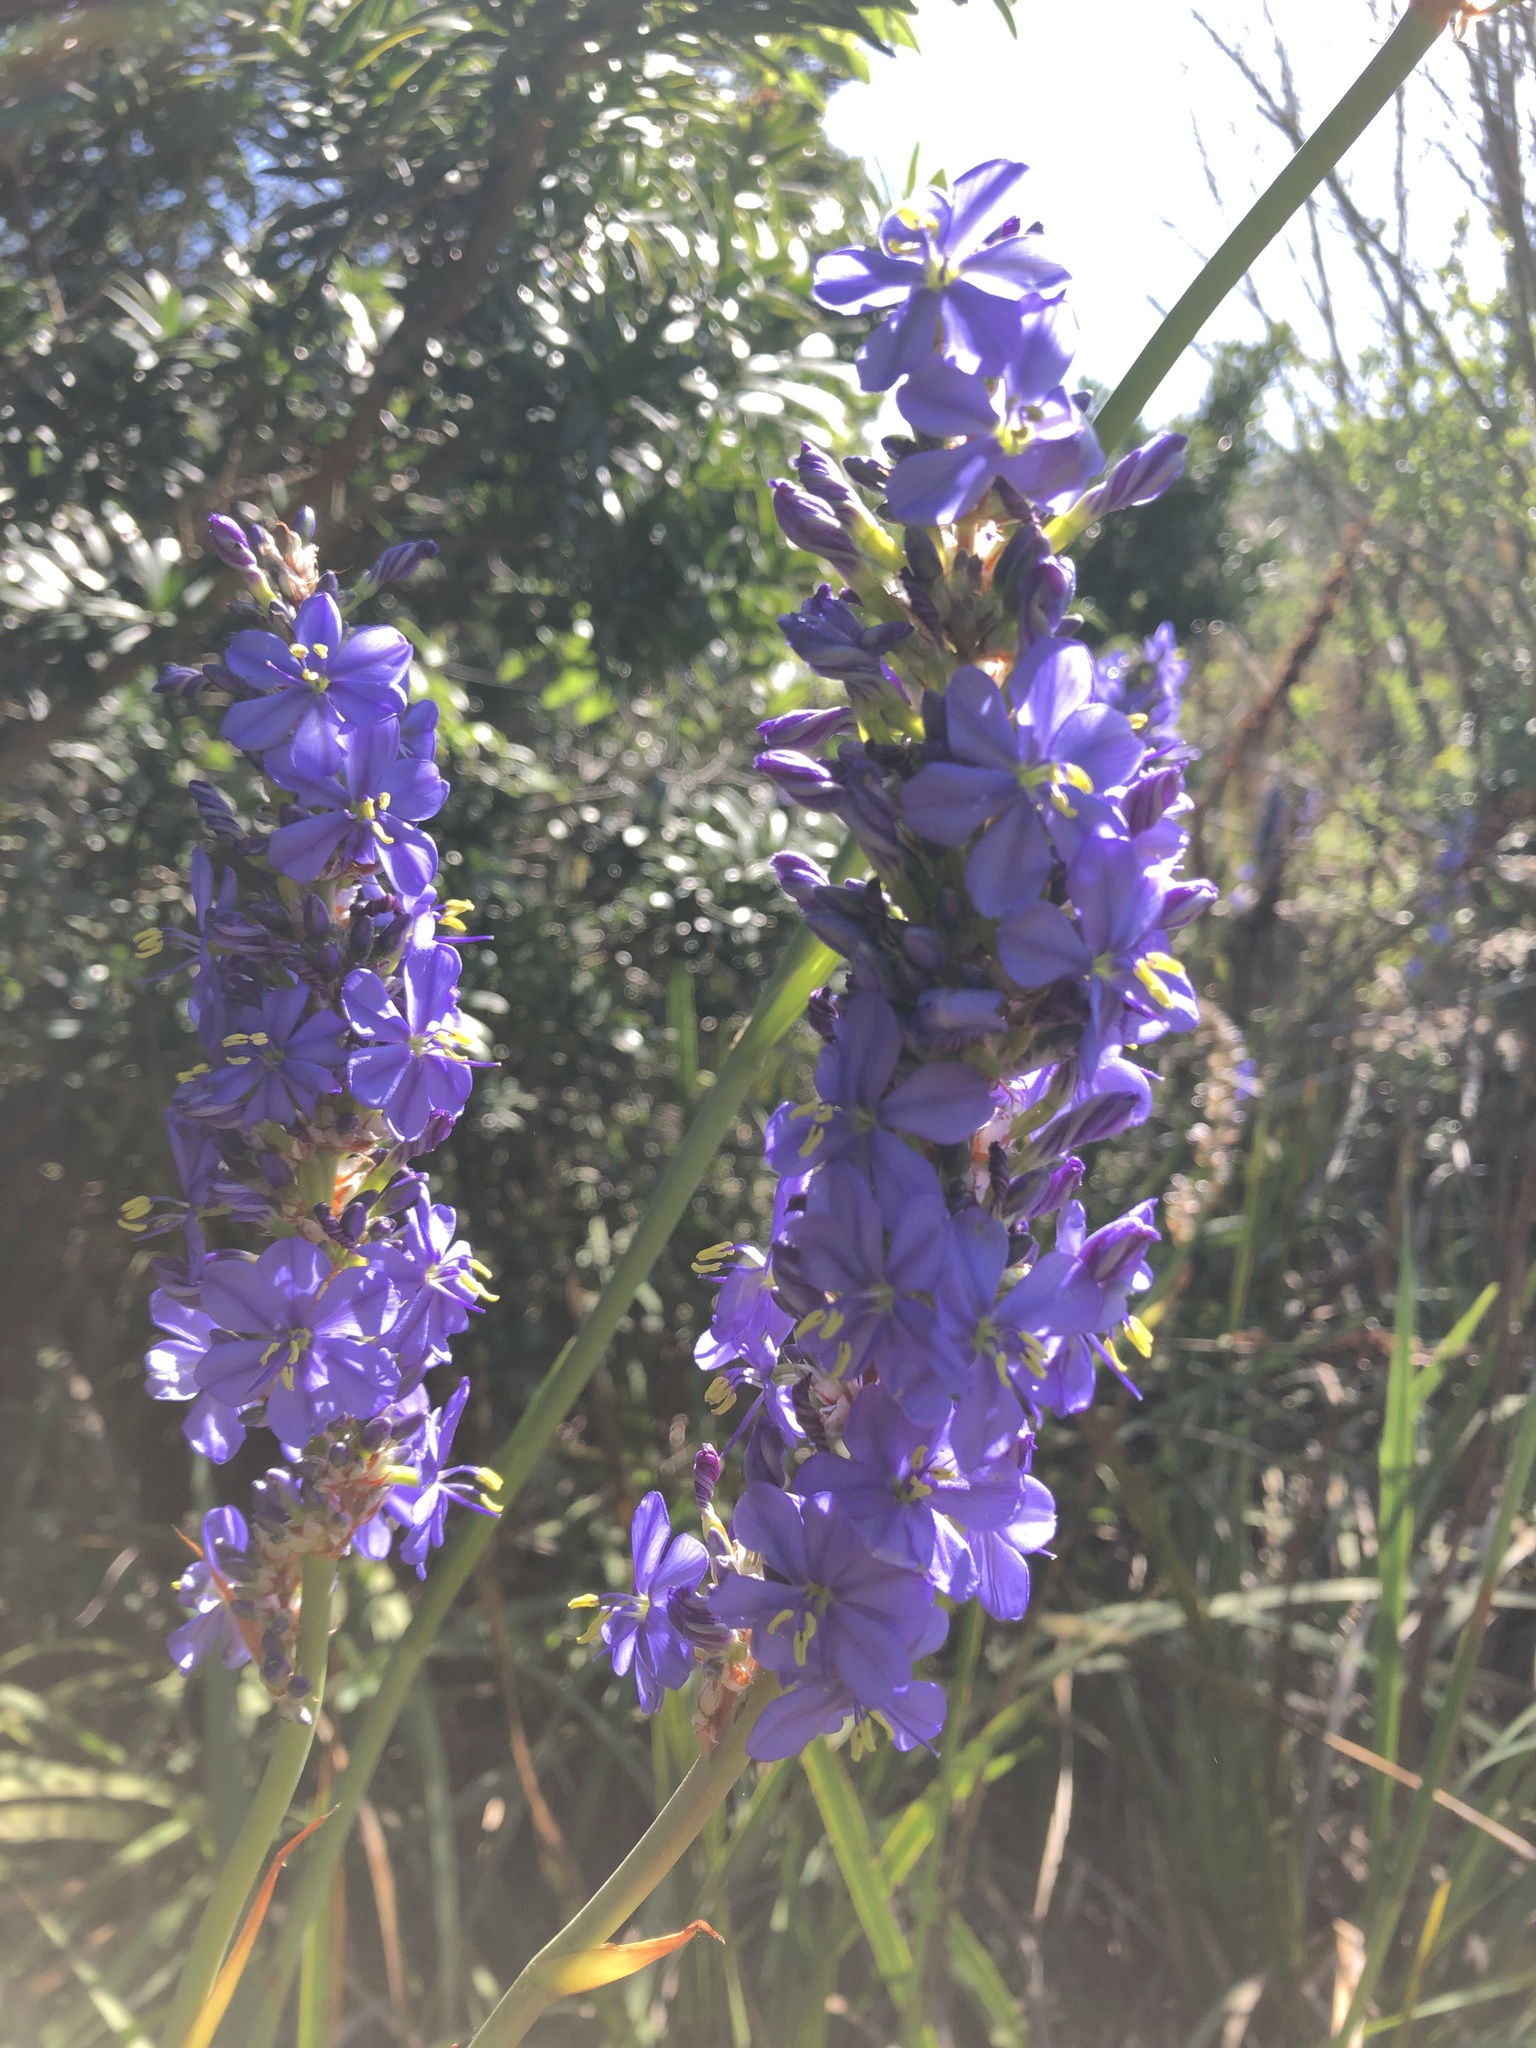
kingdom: Plantae
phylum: Tracheophyta
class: Liliopsida
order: Asparagales
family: Iridaceae
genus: Aristea
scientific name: Aristea capitata
